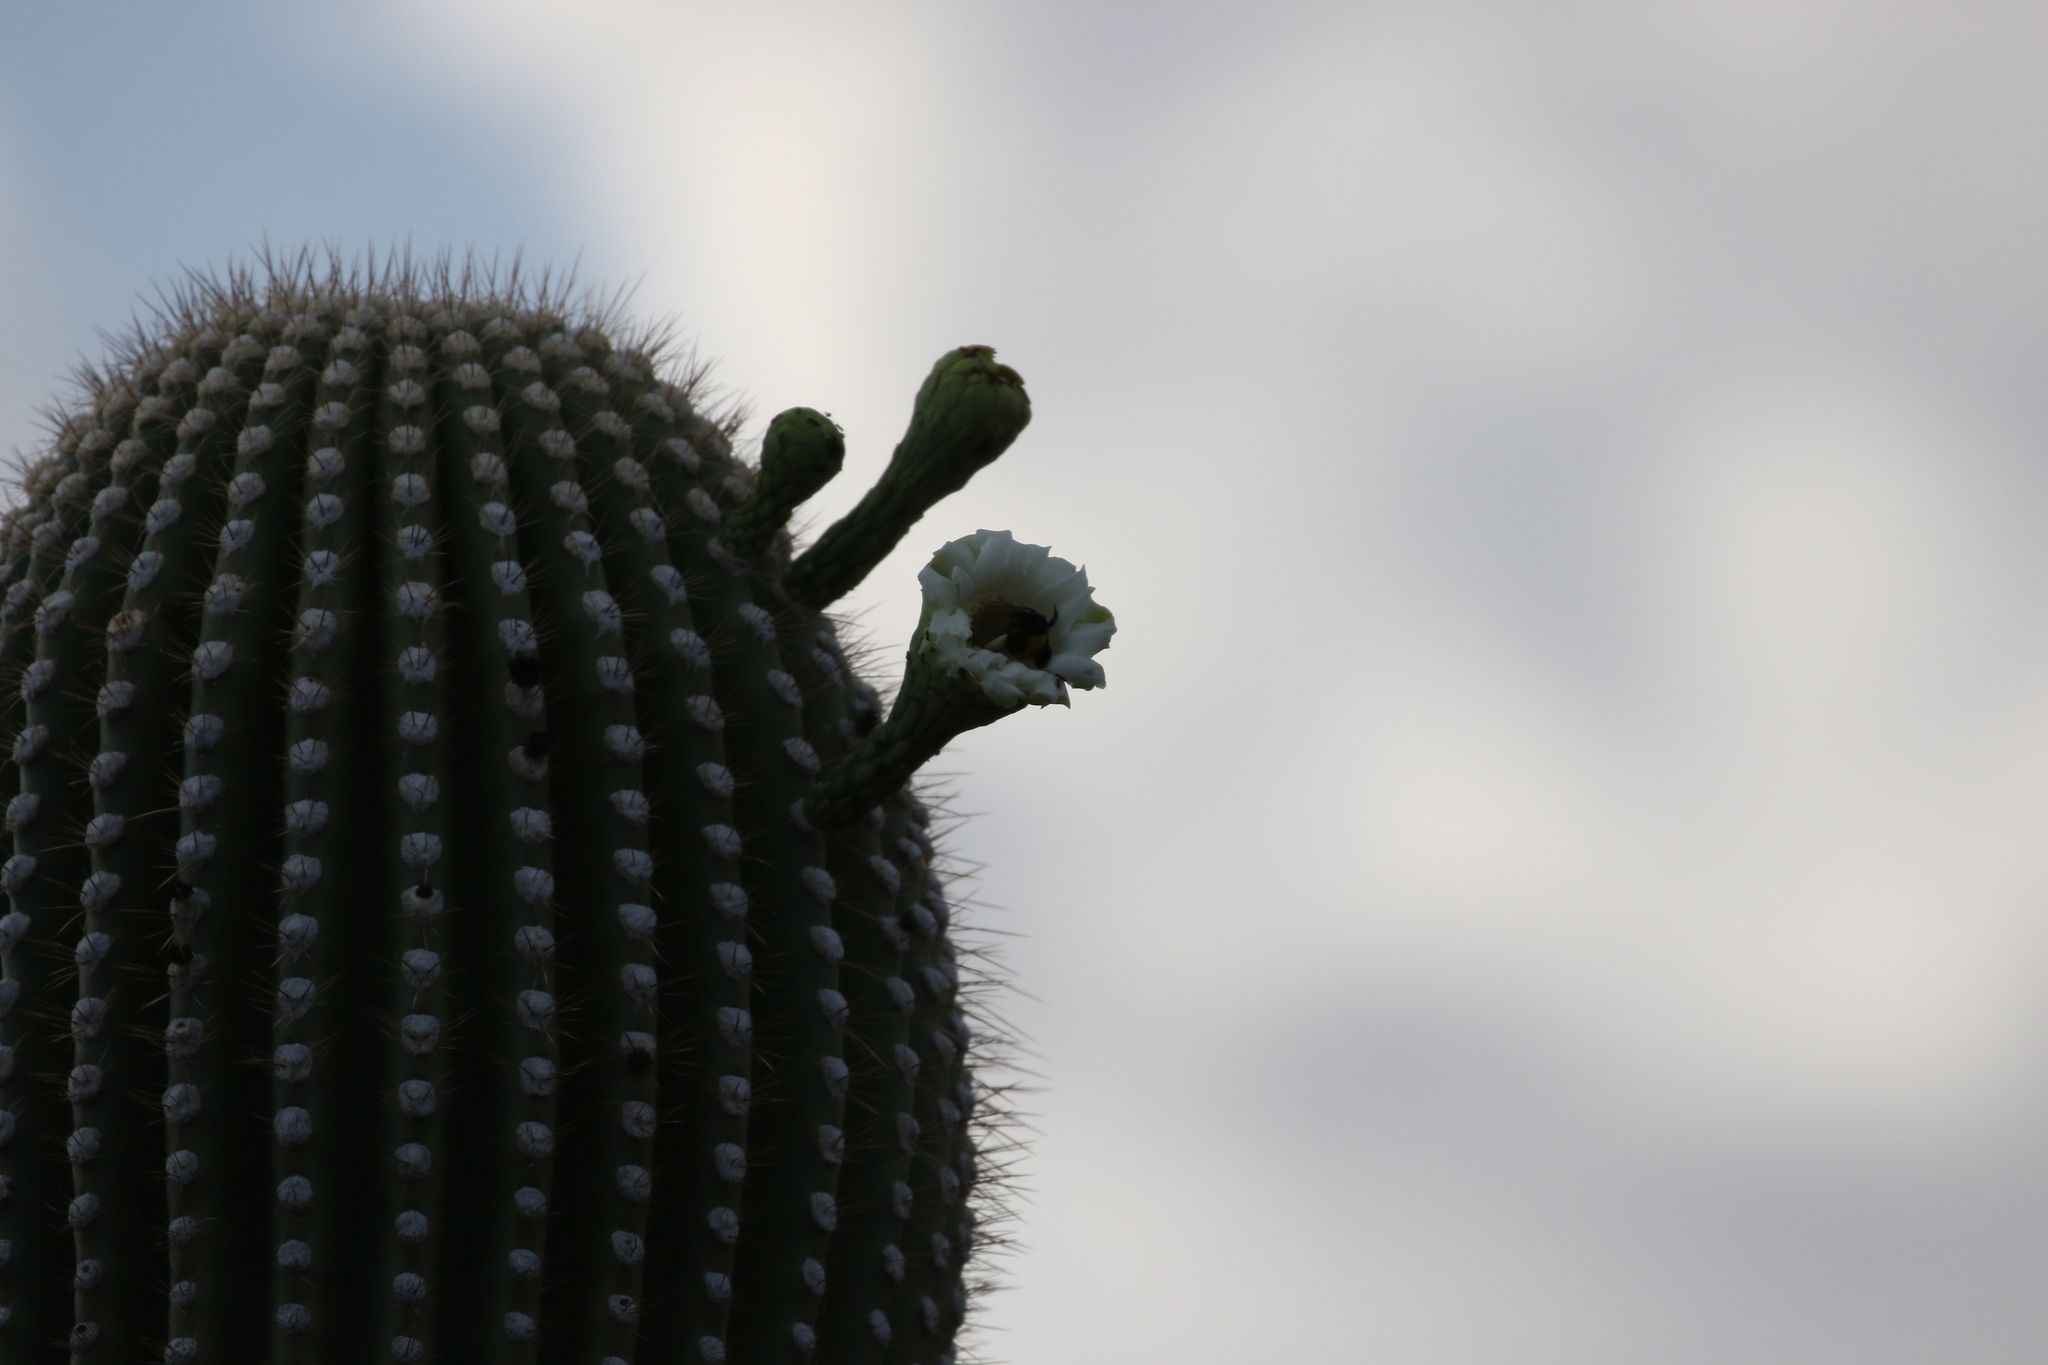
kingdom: Plantae
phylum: Tracheophyta
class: Magnoliopsida
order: Caryophyllales
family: Cactaceae
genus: Carnegiea
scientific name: Carnegiea gigantea
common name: Saguaro
